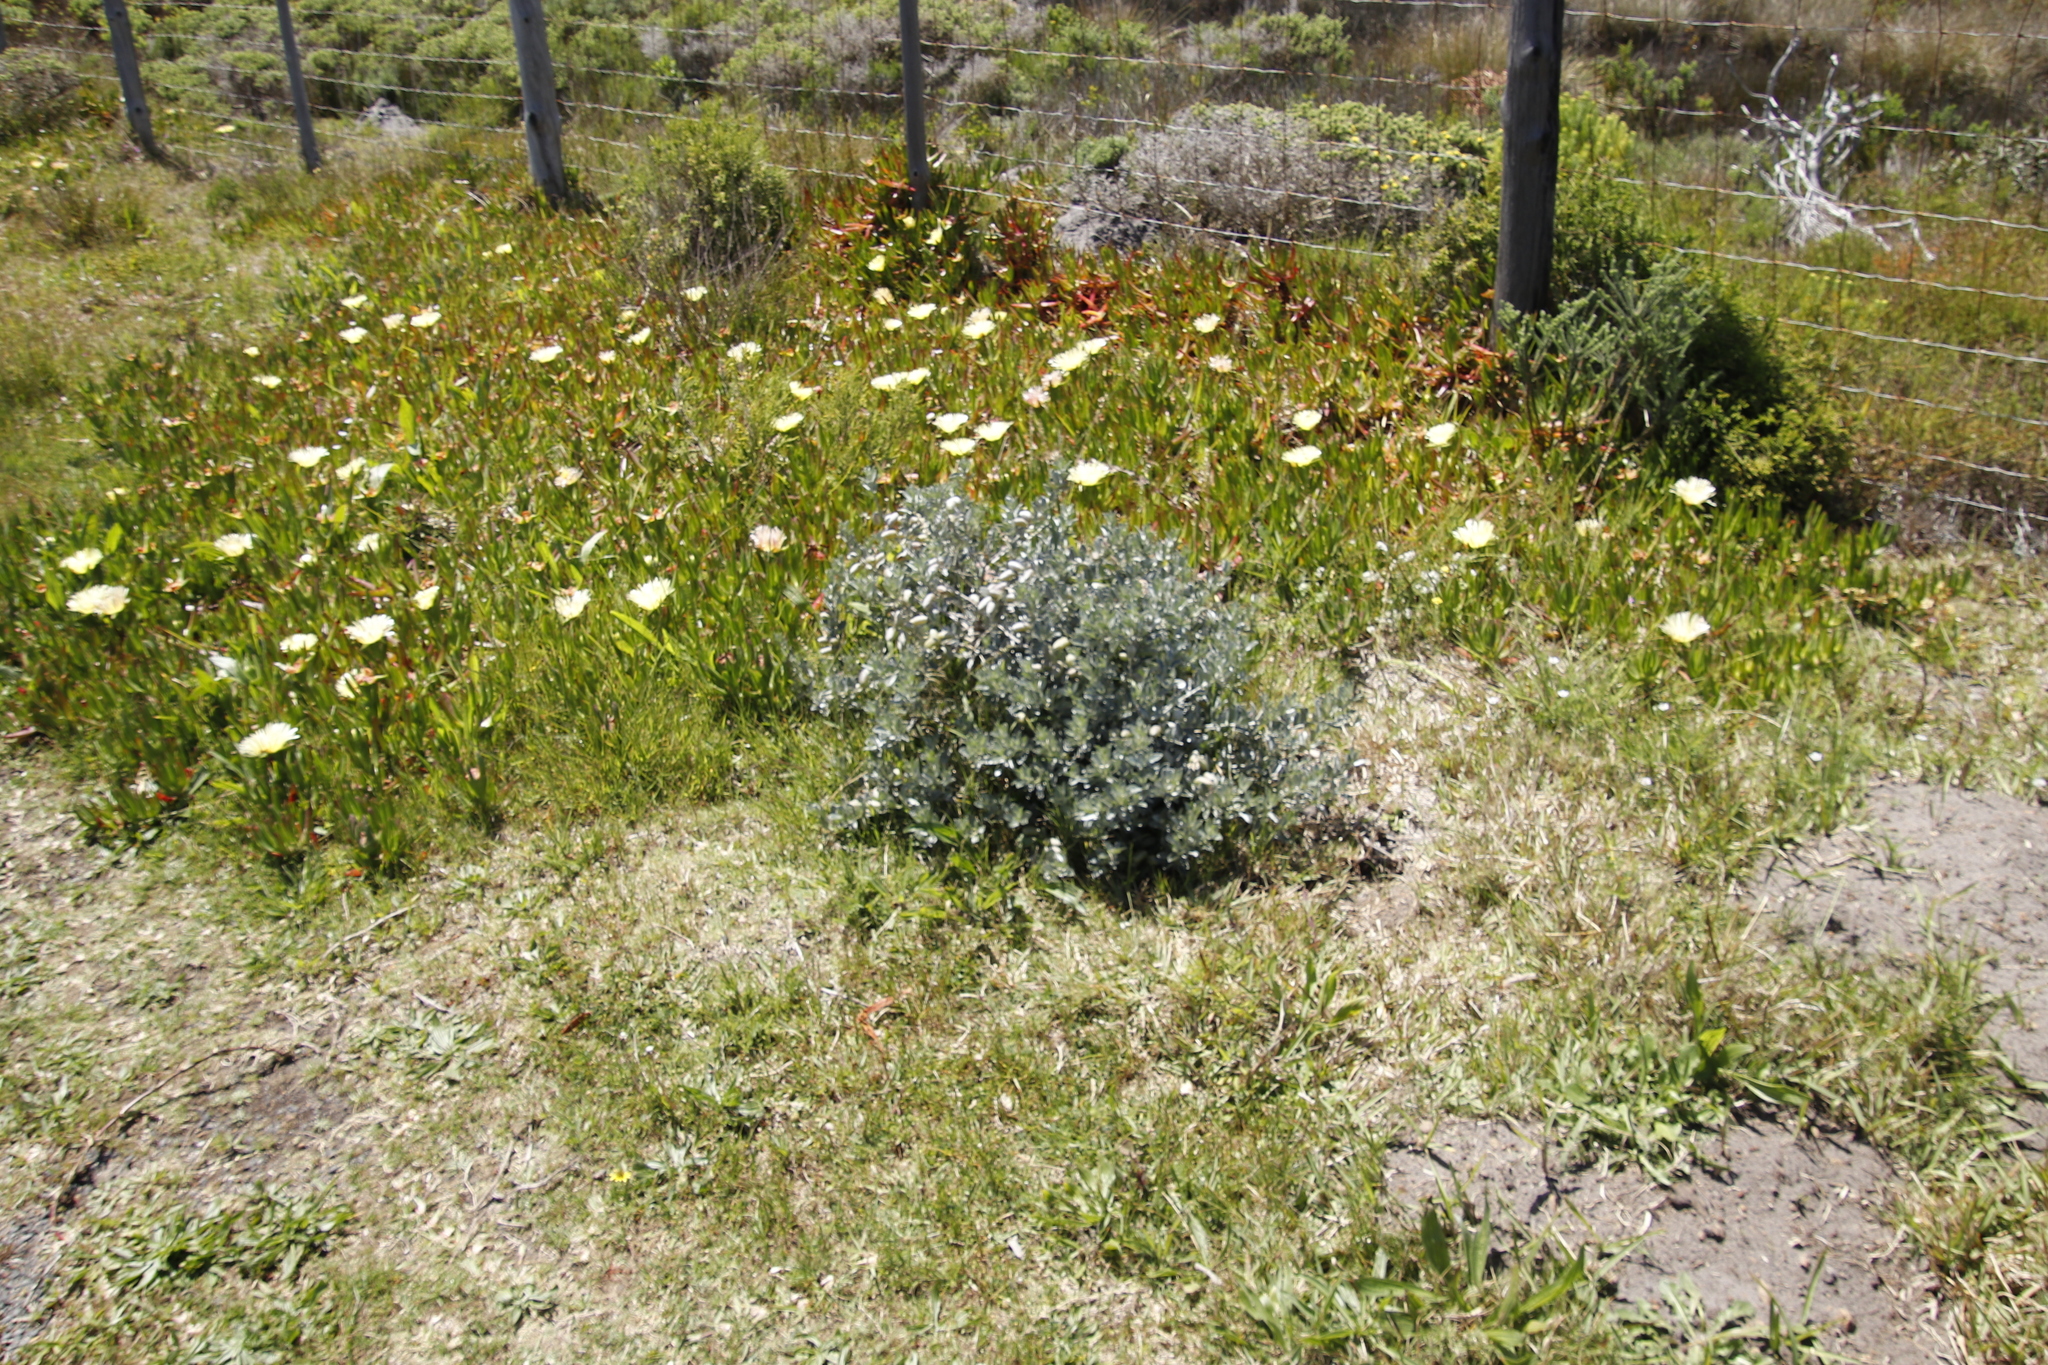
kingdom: Plantae
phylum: Tracheophyta
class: Magnoliopsida
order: Fabales
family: Fabaceae
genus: Podalyria
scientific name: Podalyria sericea
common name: Silver podalyria
